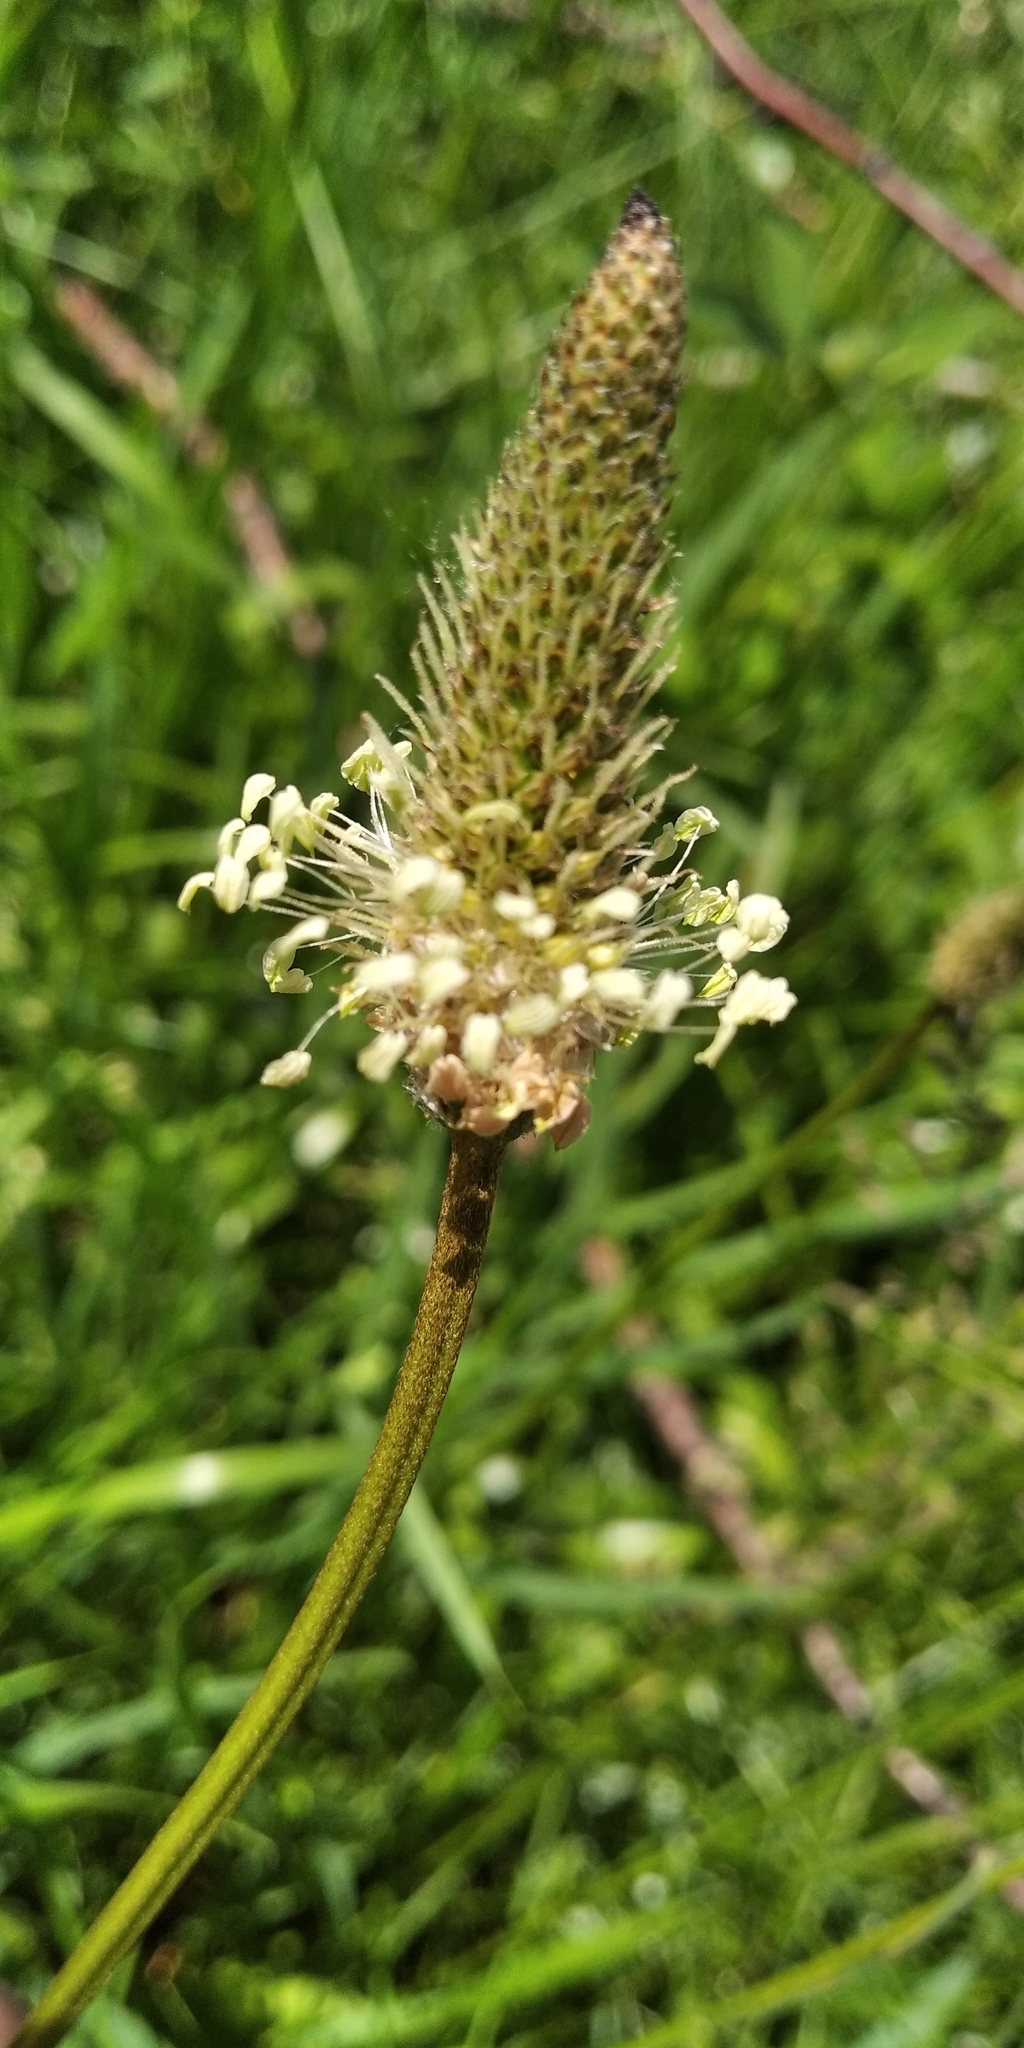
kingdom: Plantae
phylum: Tracheophyta
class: Magnoliopsida
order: Lamiales
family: Plantaginaceae
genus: Plantago
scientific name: Plantago lanceolata
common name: Ribwort plantain
